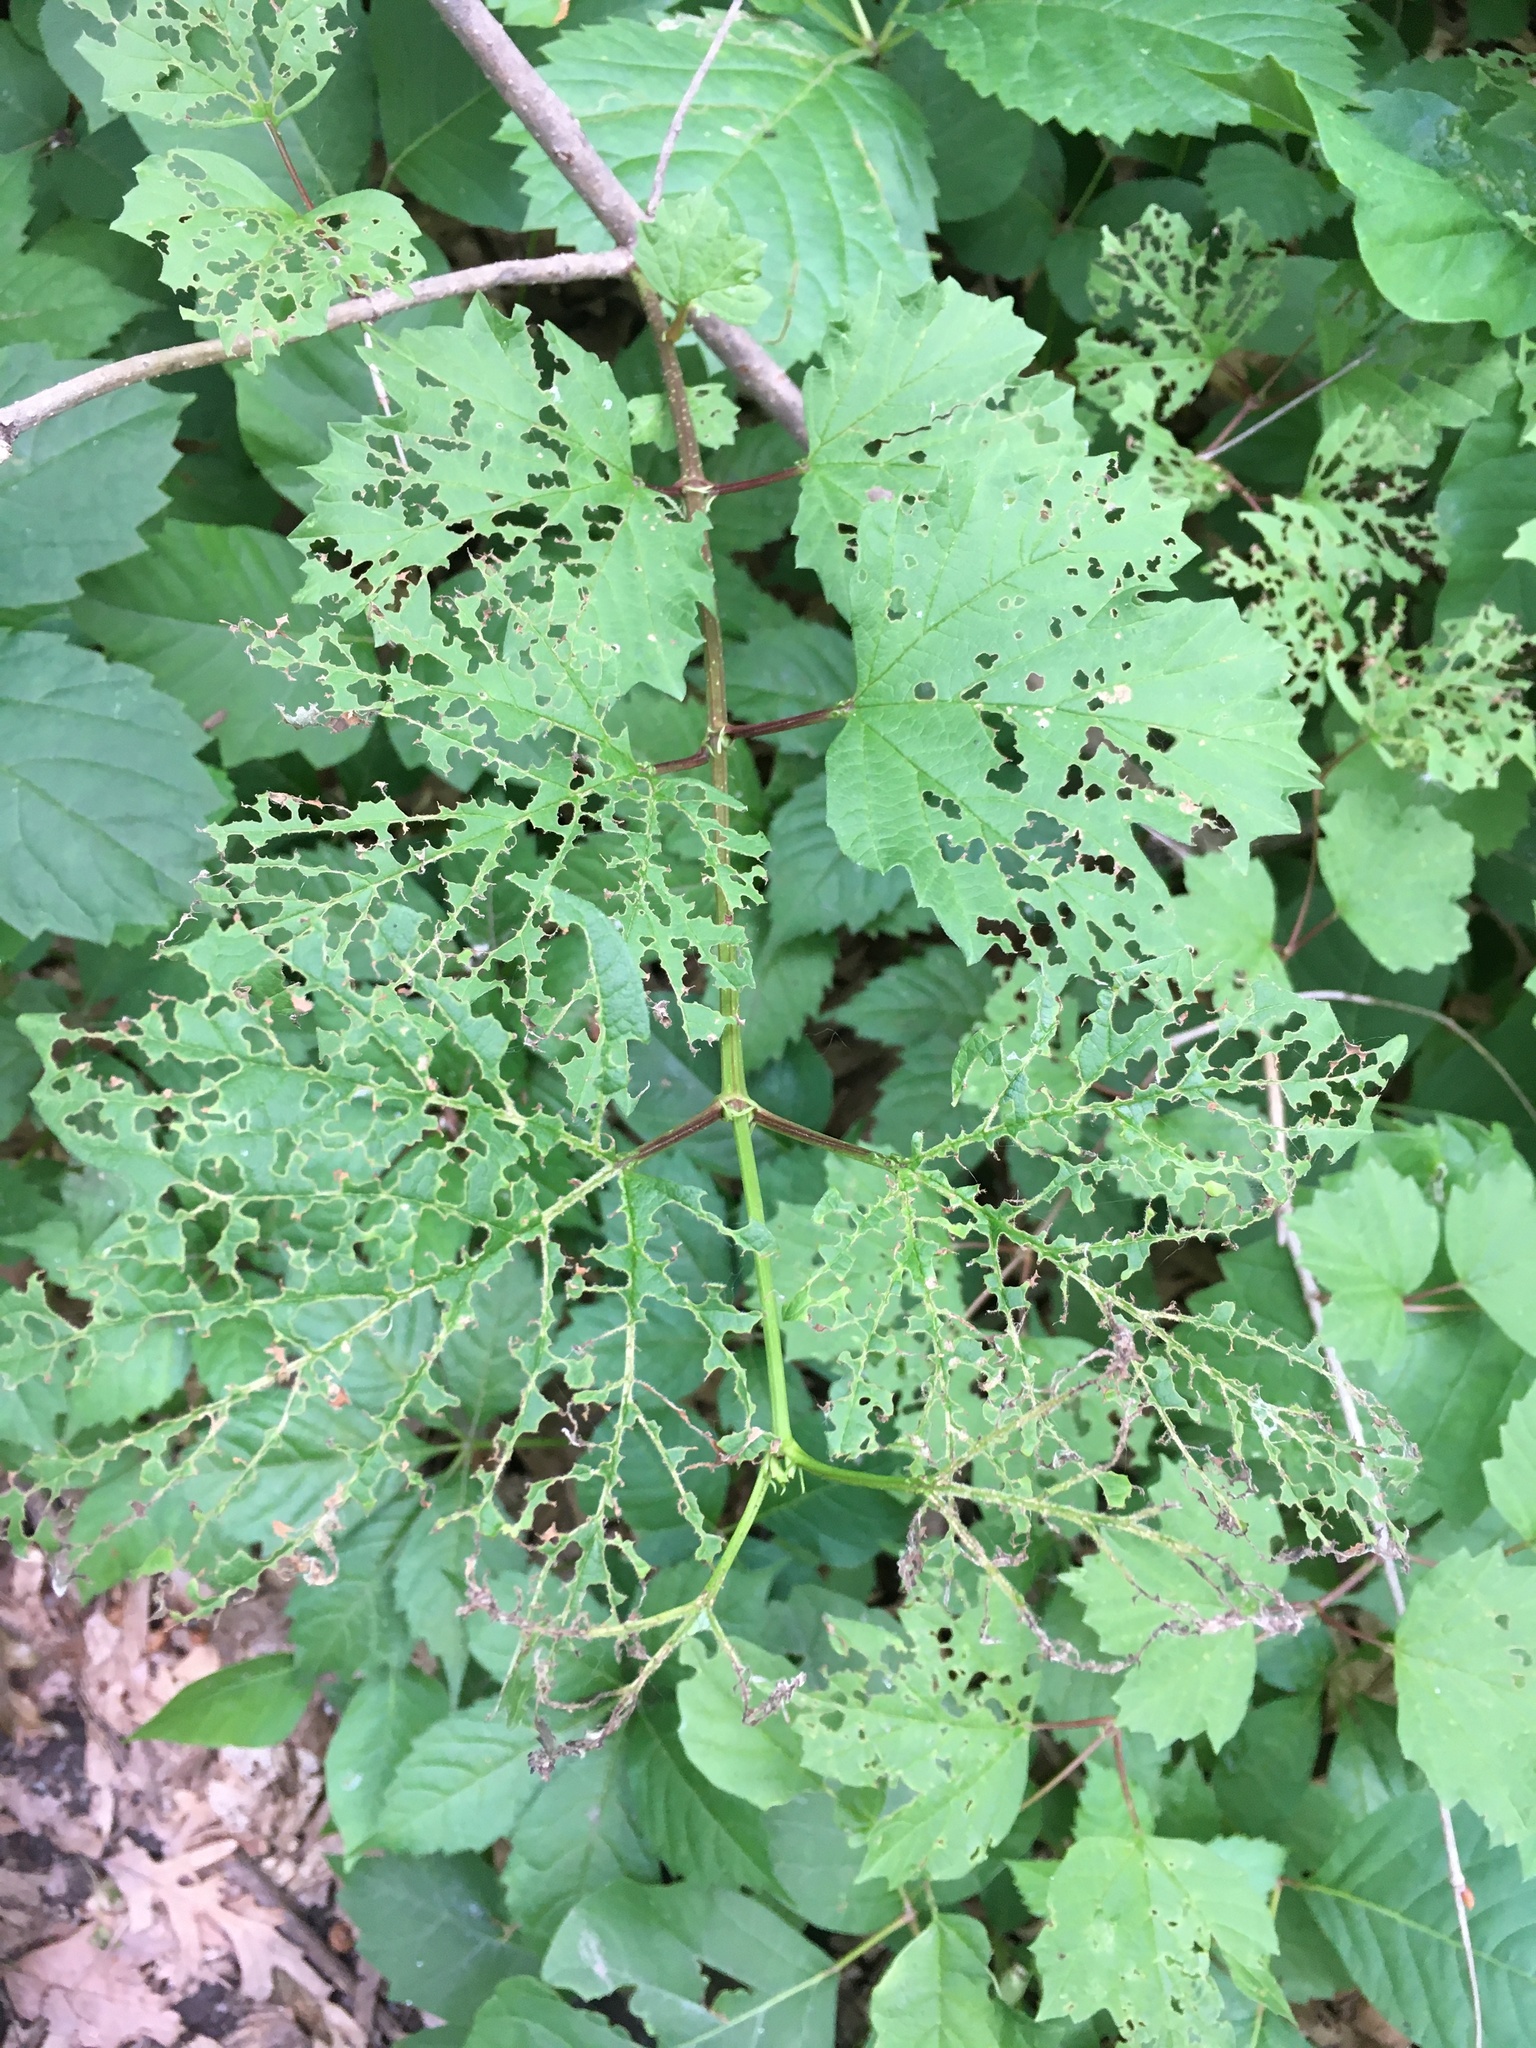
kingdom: Animalia
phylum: Arthropoda
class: Insecta
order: Coleoptera
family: Chrysomelidae
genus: Pyrrhalta
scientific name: Pyrrhalta viburni
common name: Guelder-rose leaf beetle
